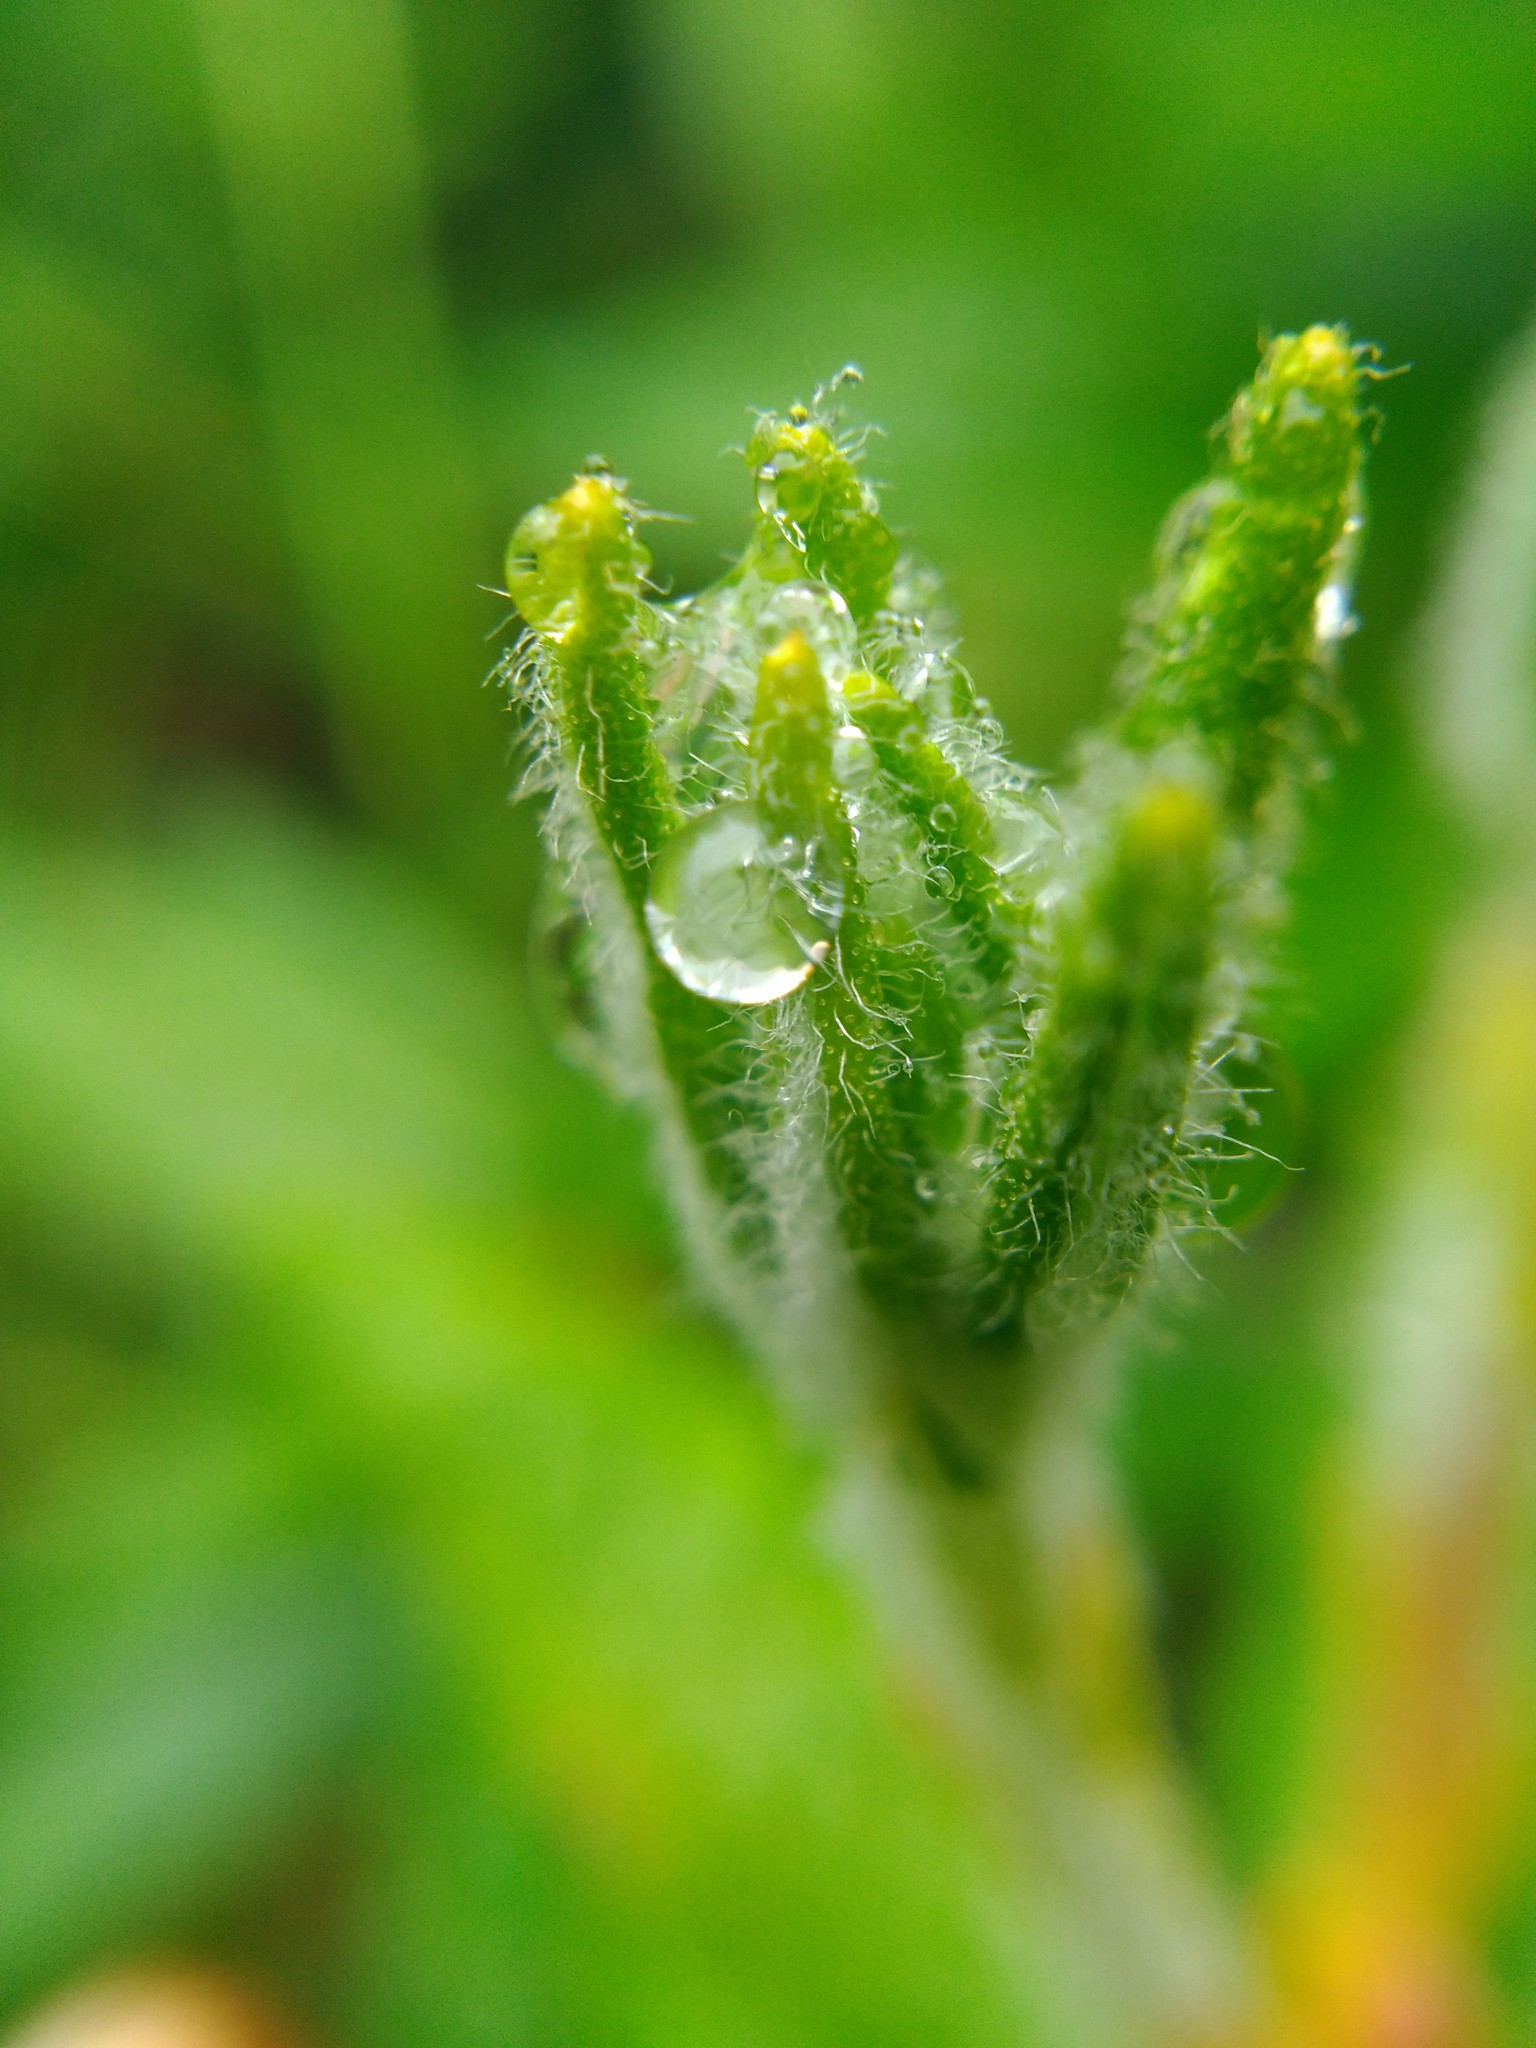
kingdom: Plantae
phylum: Tracheophyta
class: Magnoliopsida
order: Ericales
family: Ericaceae
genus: Rhododendron
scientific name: Rhododendron groenlandicum
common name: Bog labrador tea
